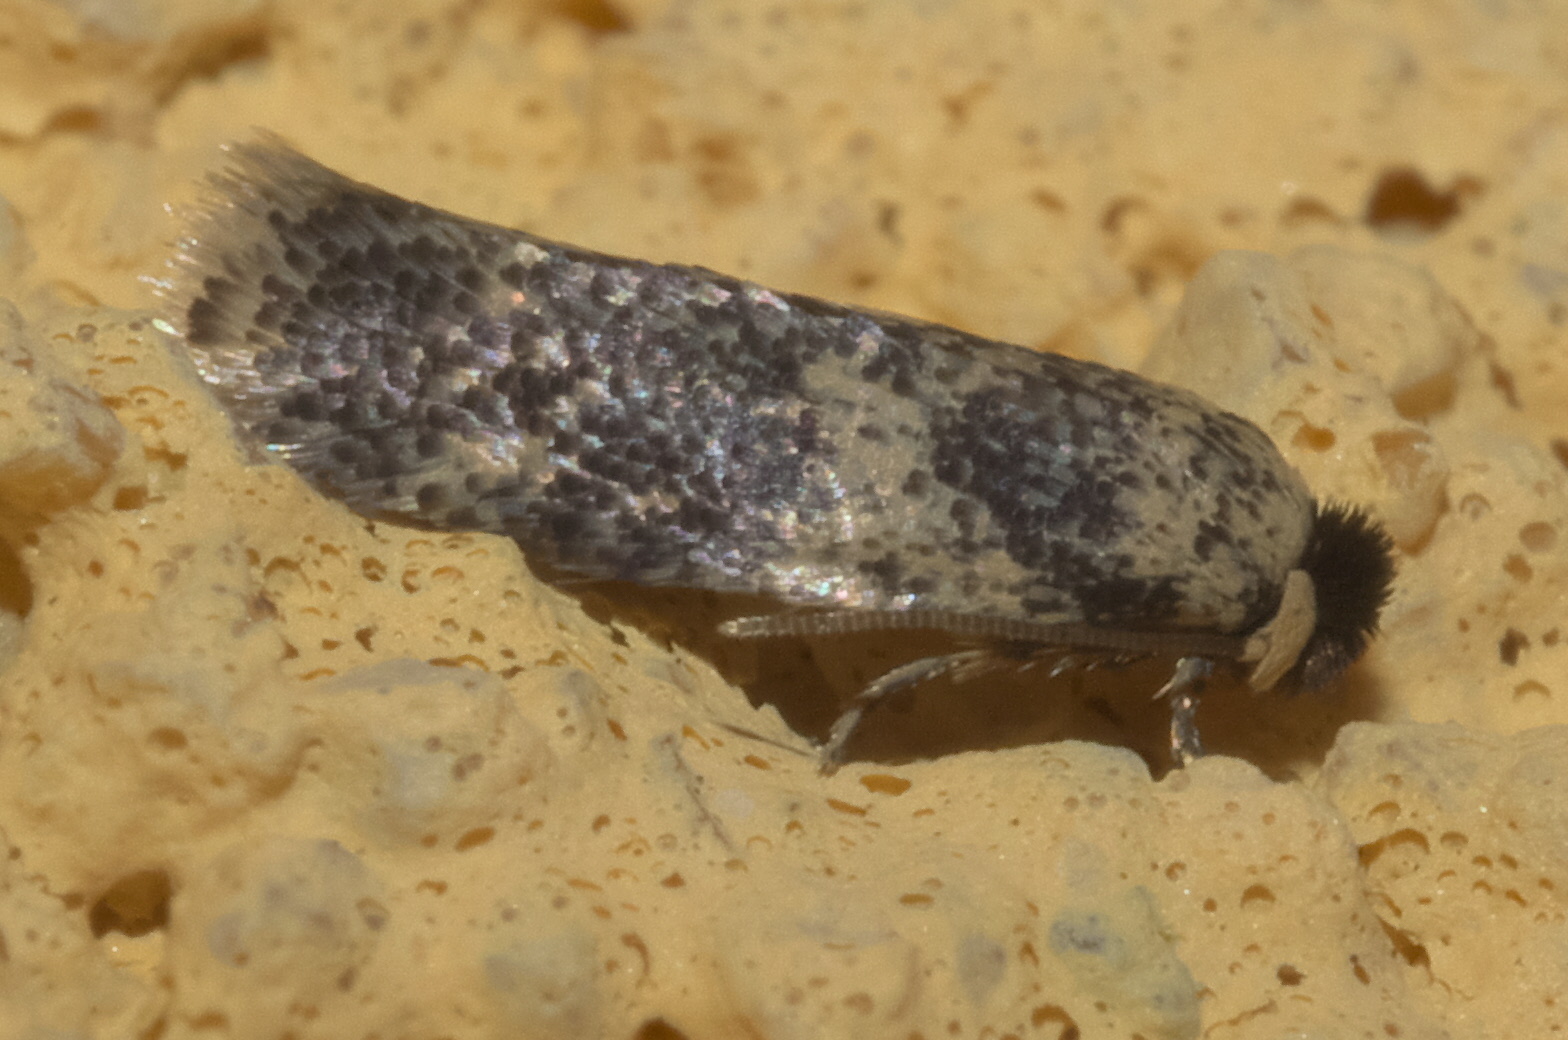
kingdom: Animalia
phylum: Arthropoda
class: Insecta
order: Lepidoptera
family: Nepticulidae
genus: Zimmermannia
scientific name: Zimmermannia bosquella
